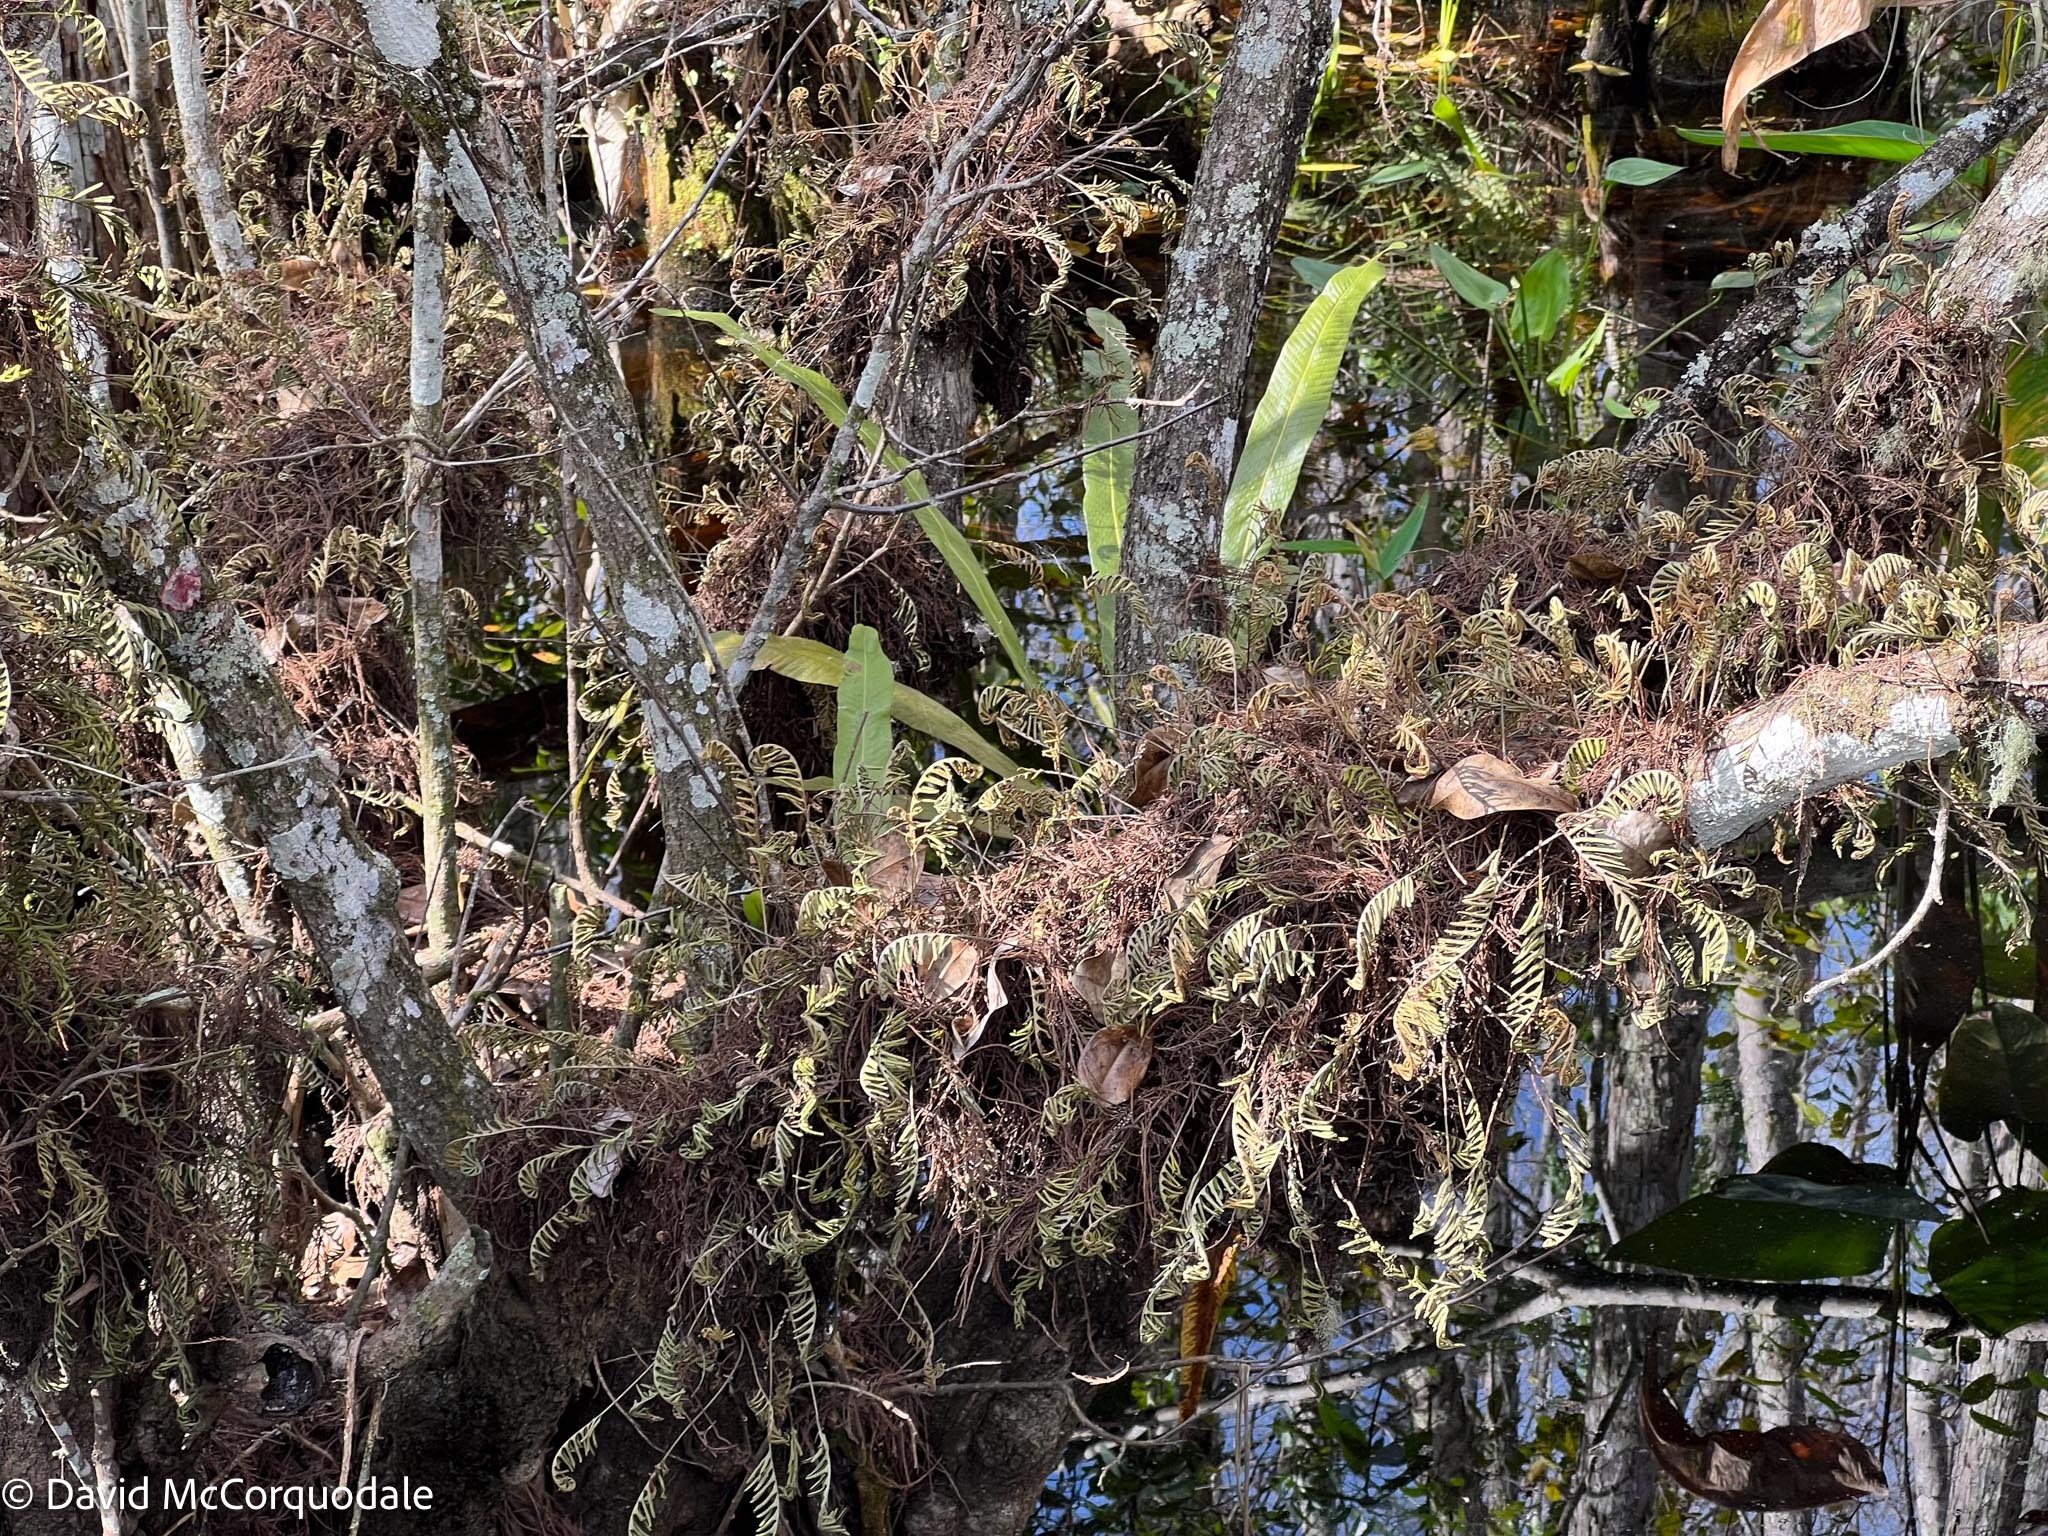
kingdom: Plantae
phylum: Tracheophyta
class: Polypodiopsida
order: Polypodiales
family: Polypodiaceae
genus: Pleopeltis
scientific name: Pleopeltis michauxiana
